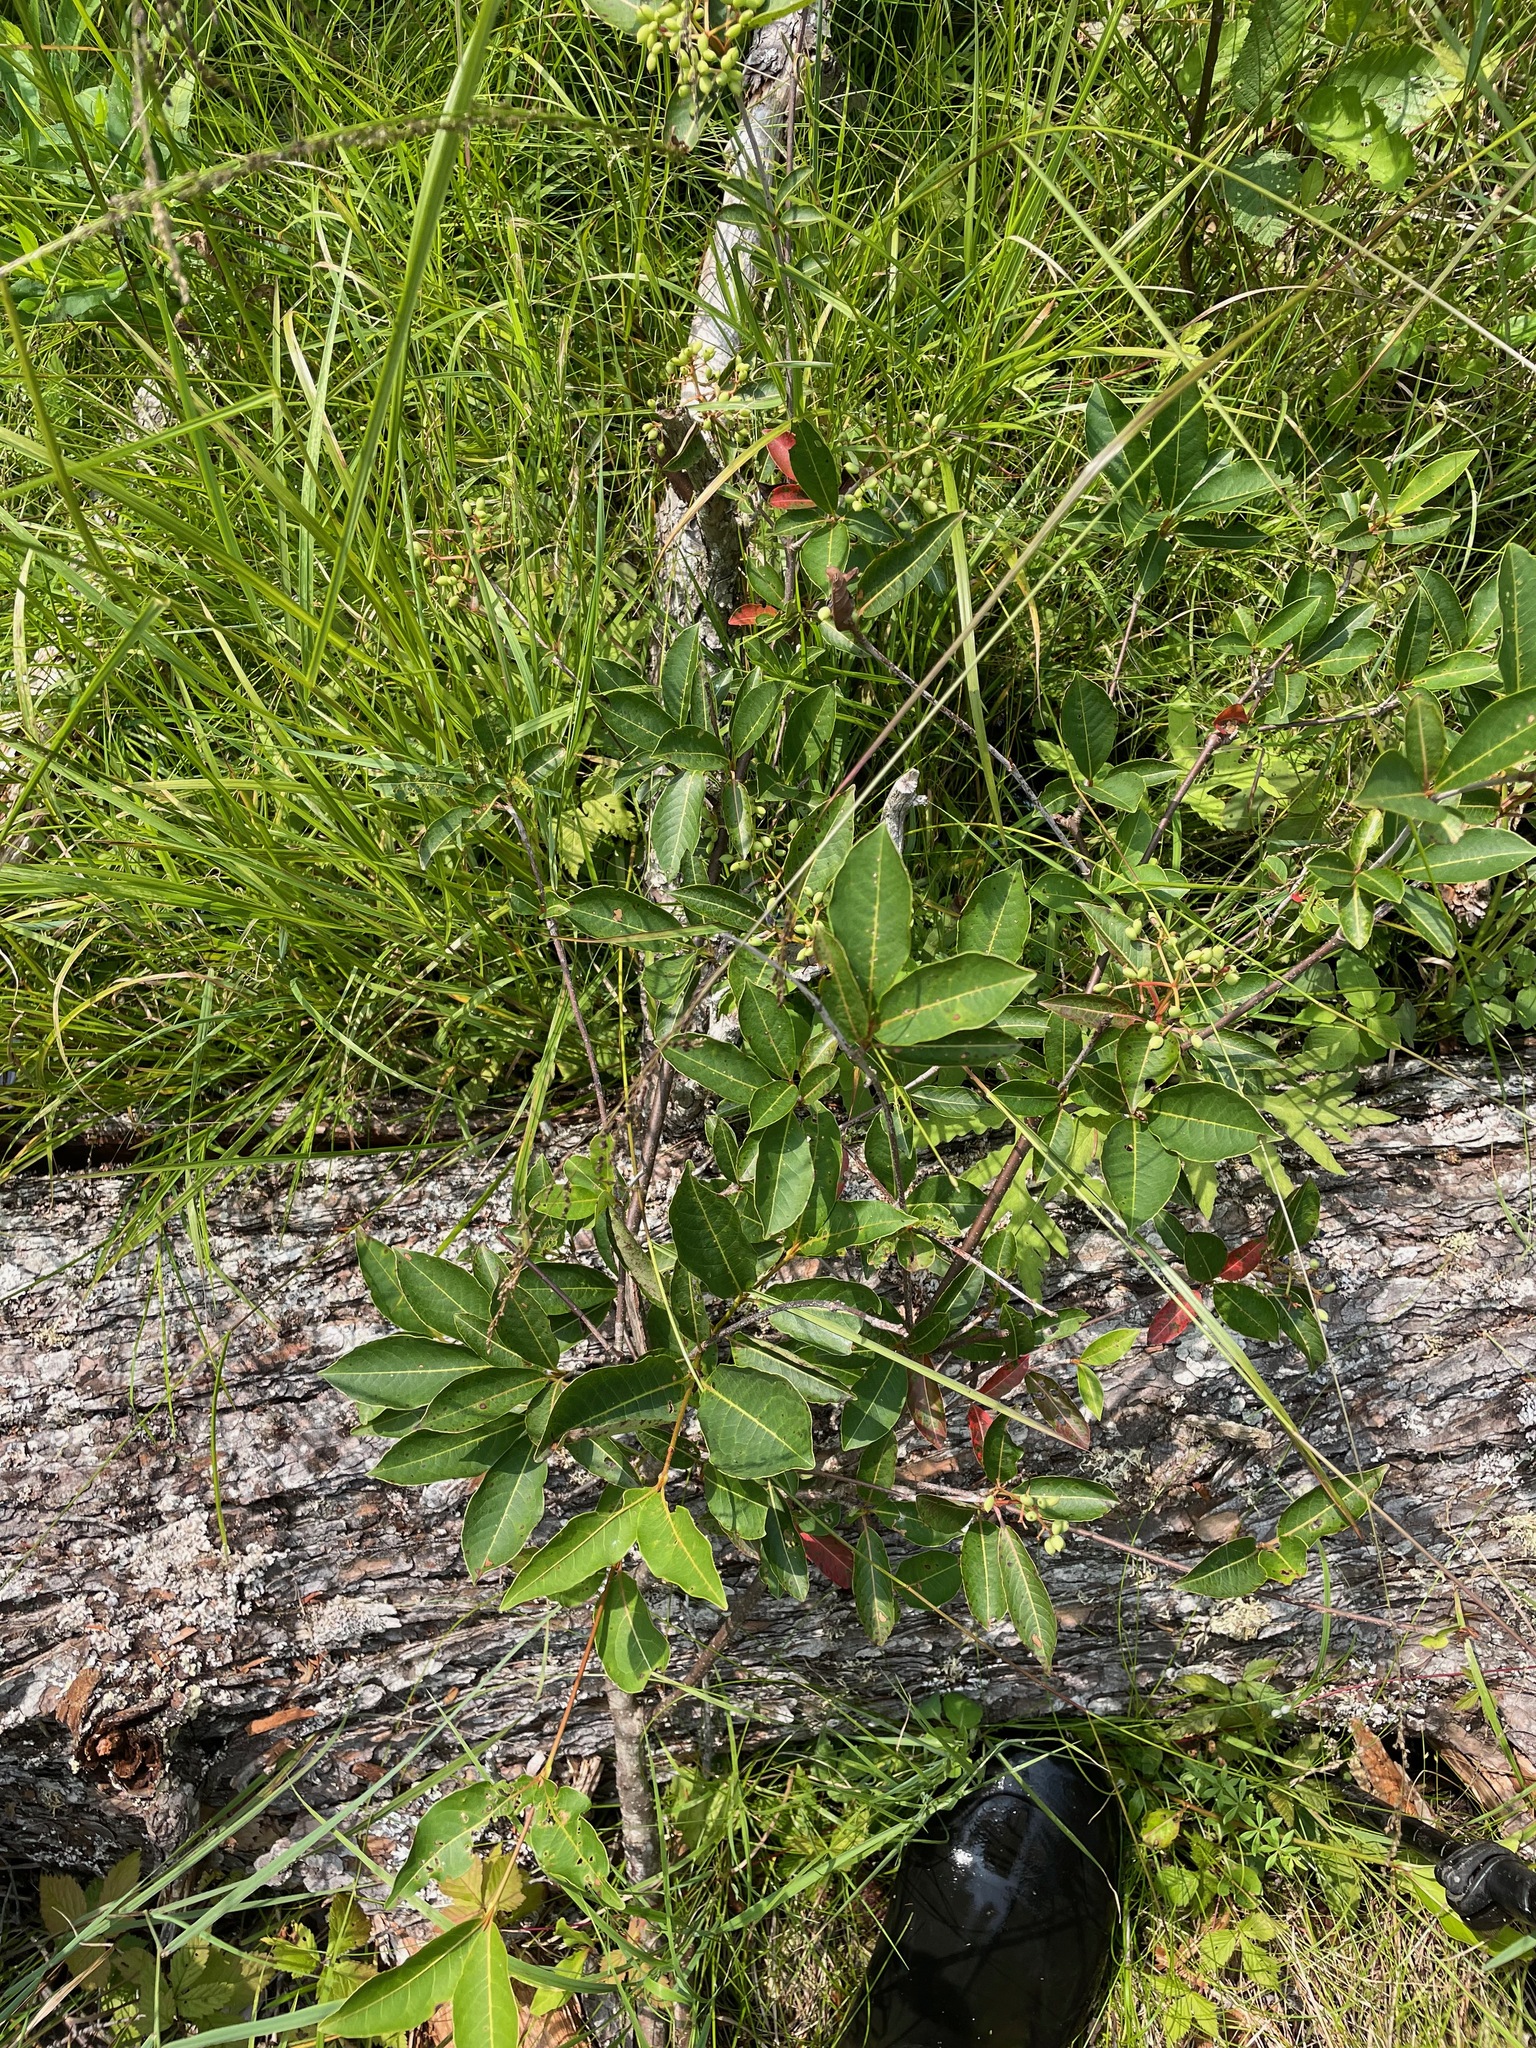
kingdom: Plantae
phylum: Tracheophyta
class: Magnoliopsida
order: Dipsacales
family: Viburnaceae
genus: Viburnum
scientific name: Viburnum cassinoides
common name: Swamp haw
